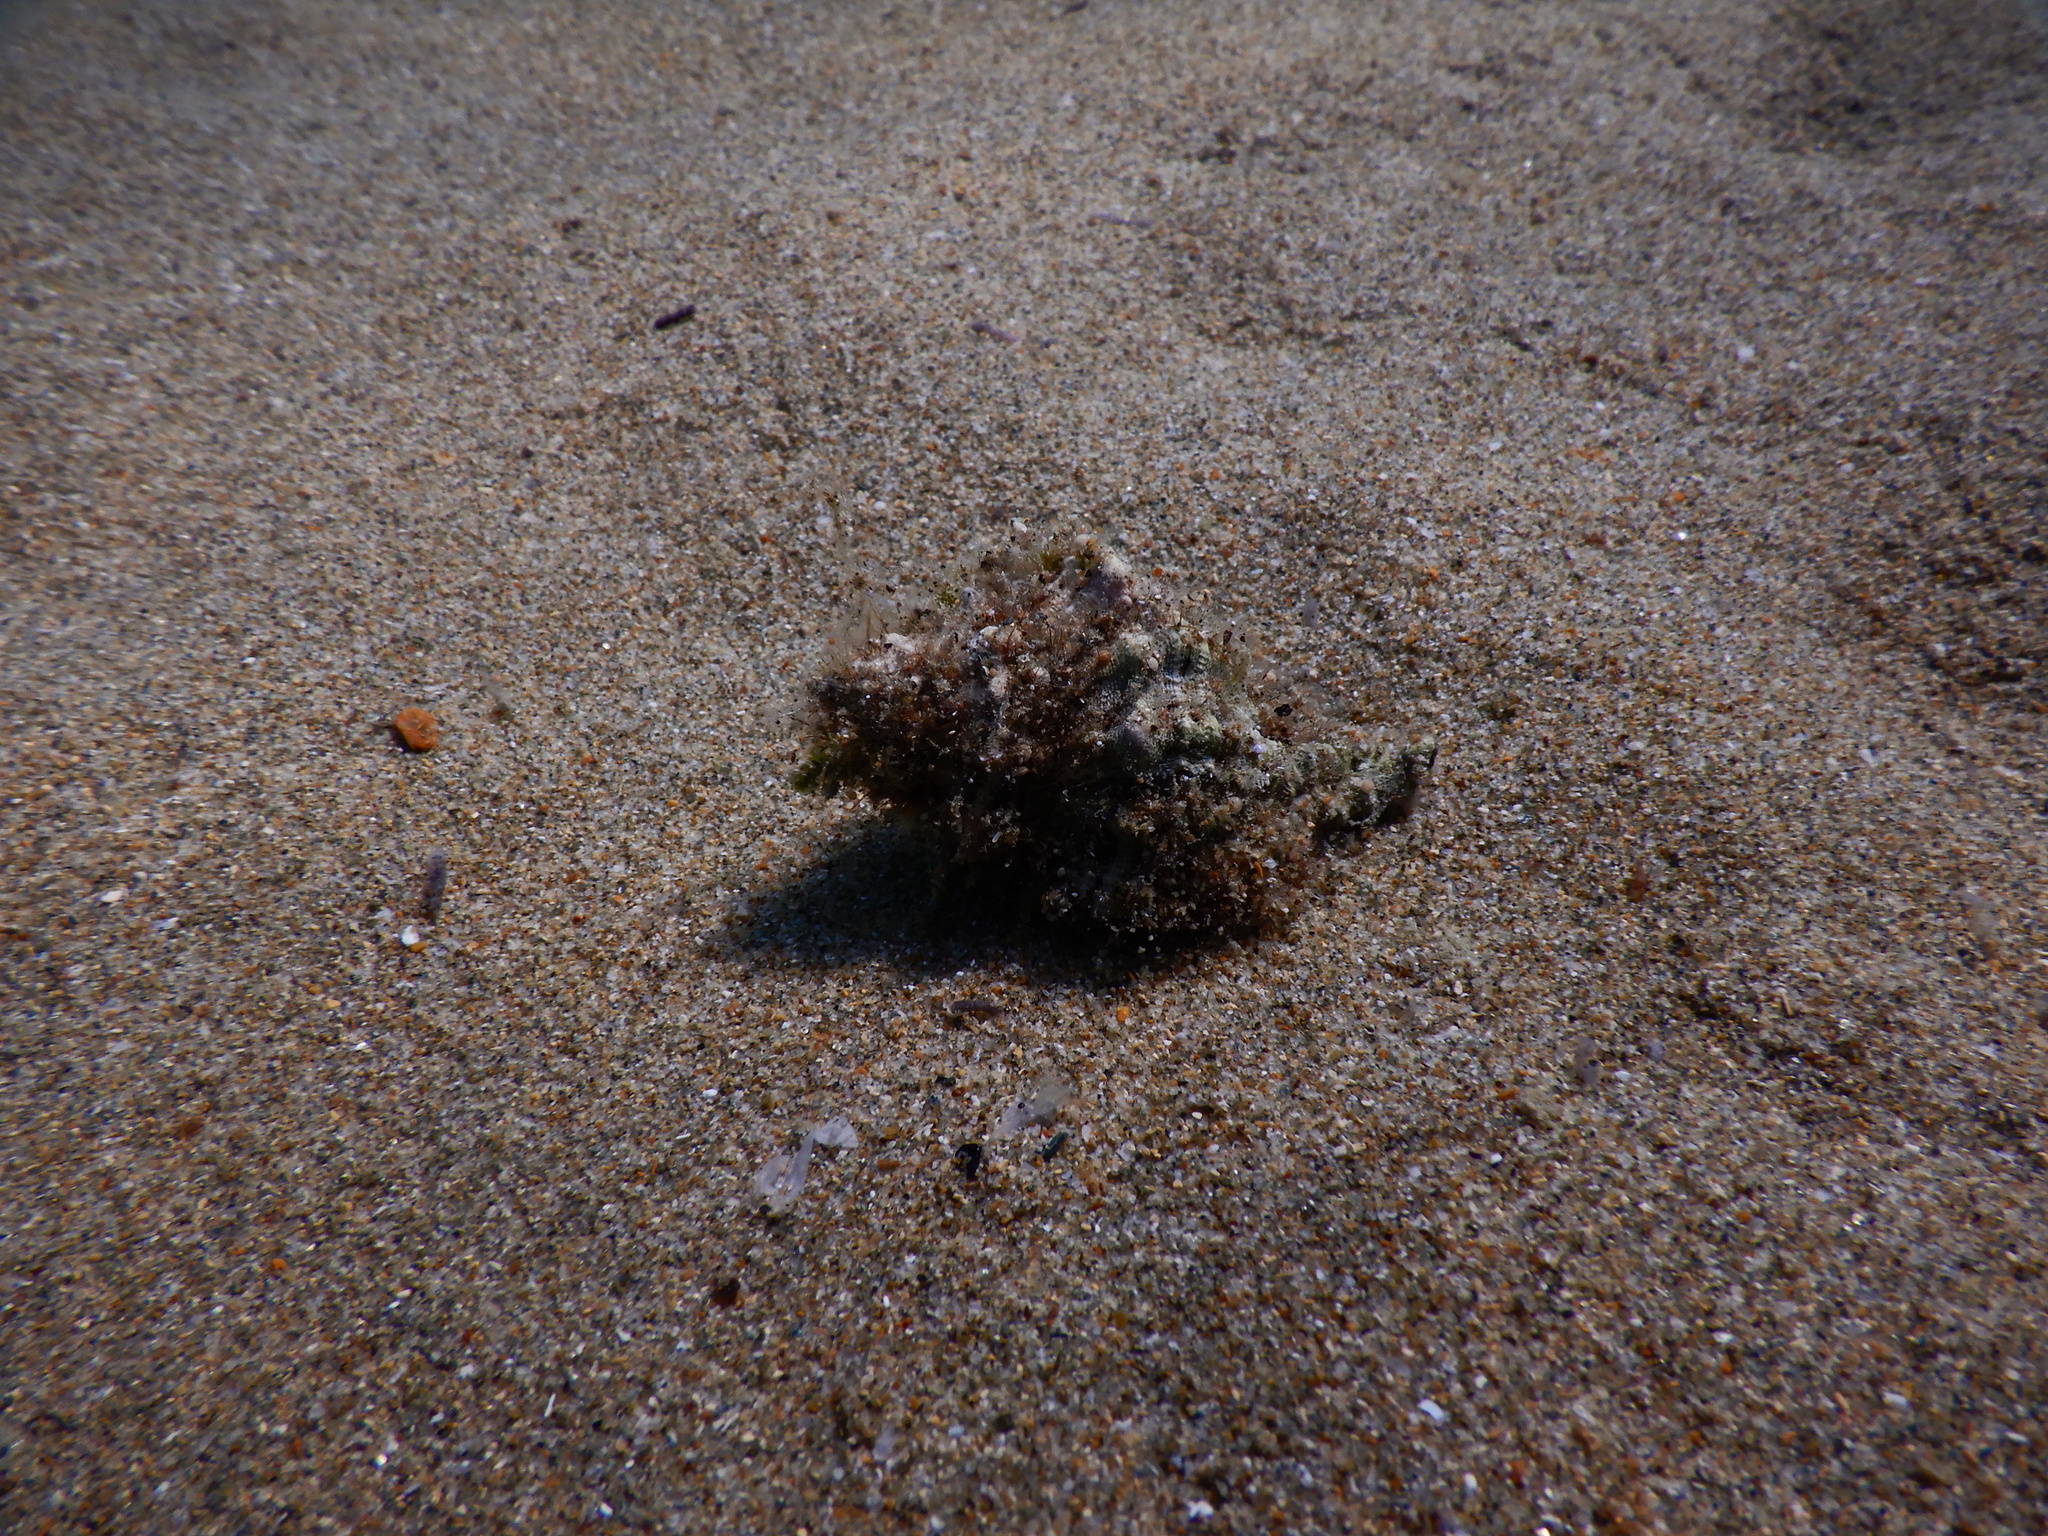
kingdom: Animalia
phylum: Mollusca
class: Gastropoda
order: Neogastropoda
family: Muricidae
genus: Hexaplex
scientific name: Hexaplex trunculus
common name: Banded dye-murex
